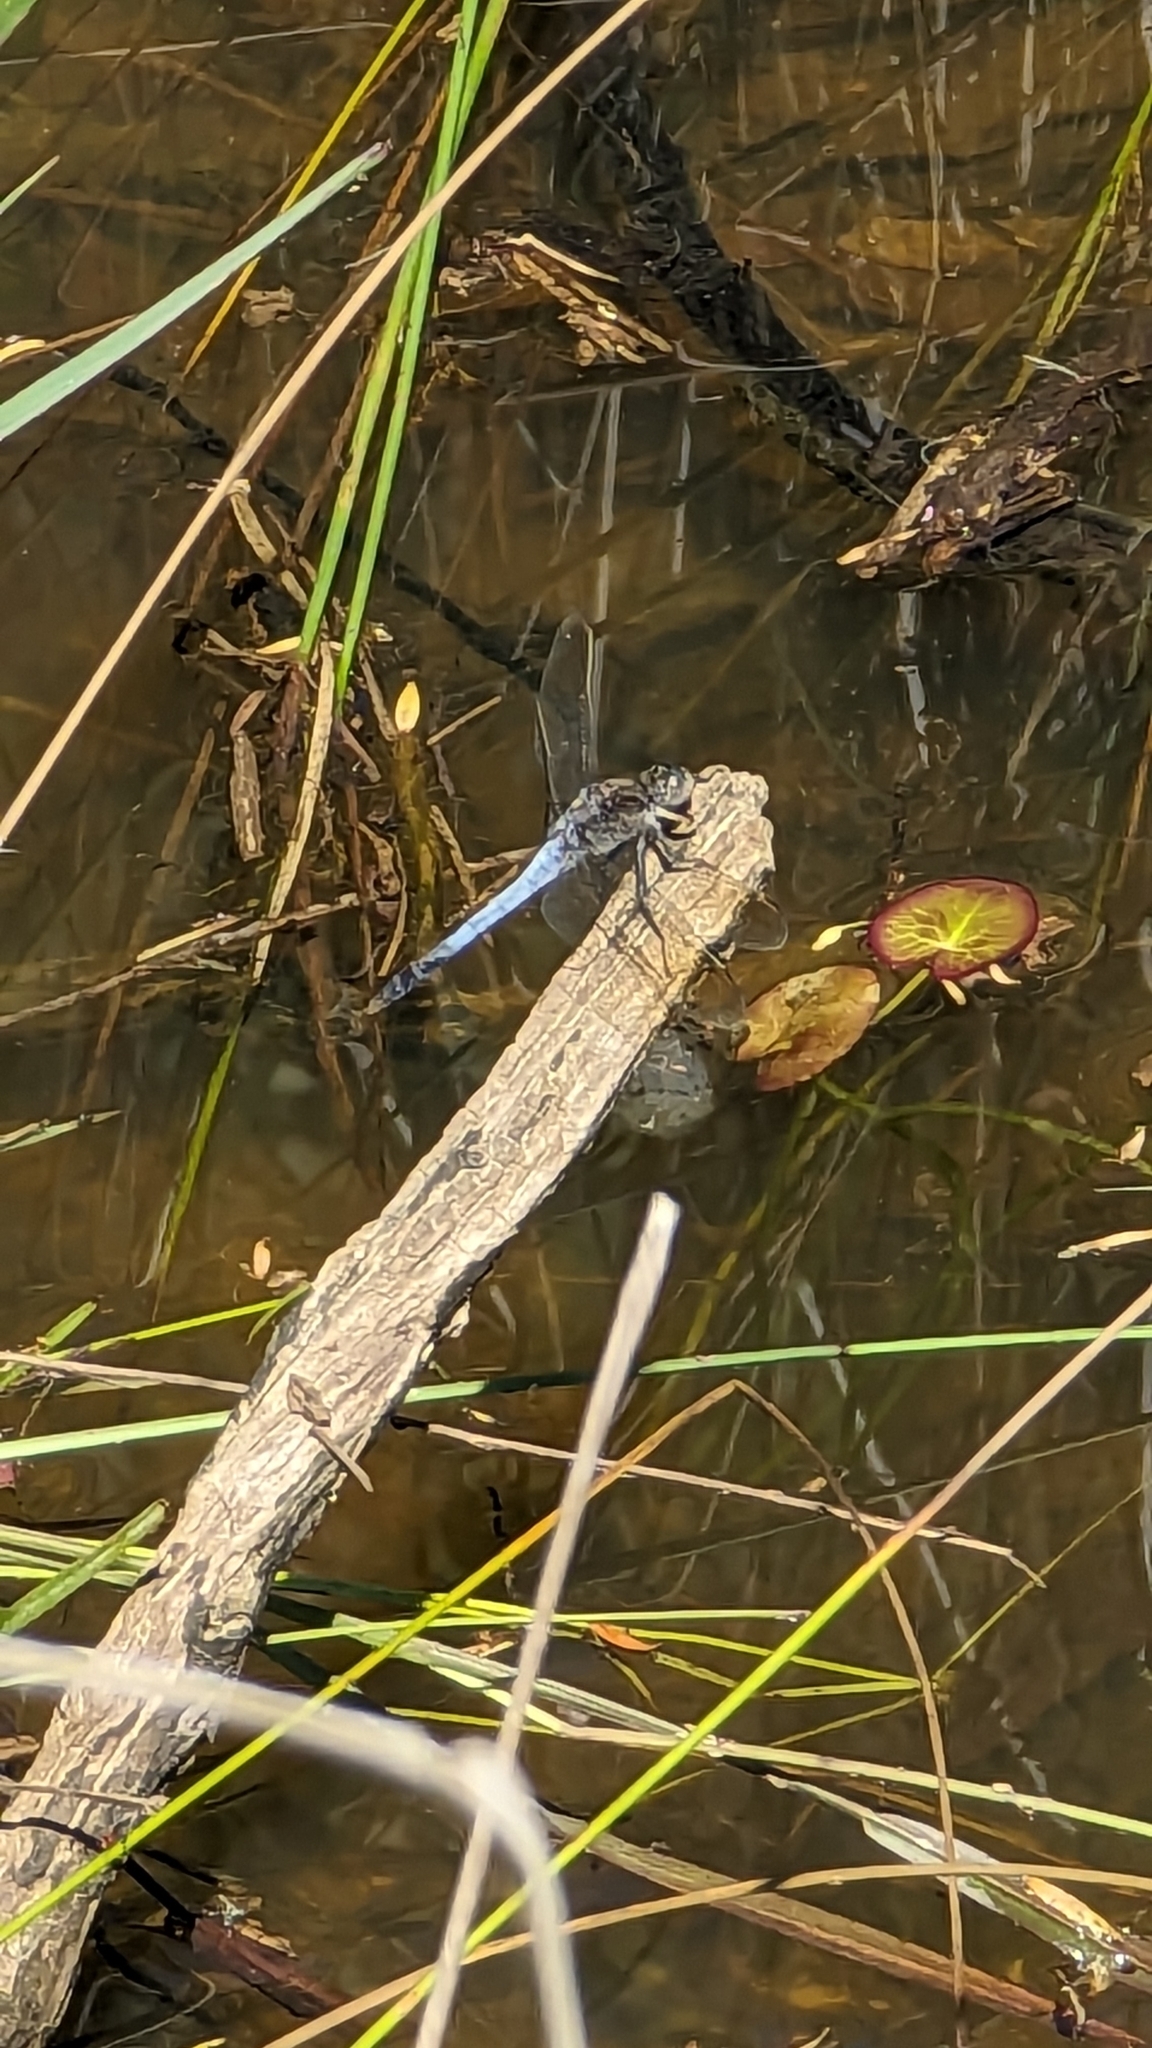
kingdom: Animalia
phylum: Arthropoda
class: Insecta
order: Odonata
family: Libellulidae
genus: Orthetrum
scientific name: Orthetrum caledonicum
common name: Blue skimmer
